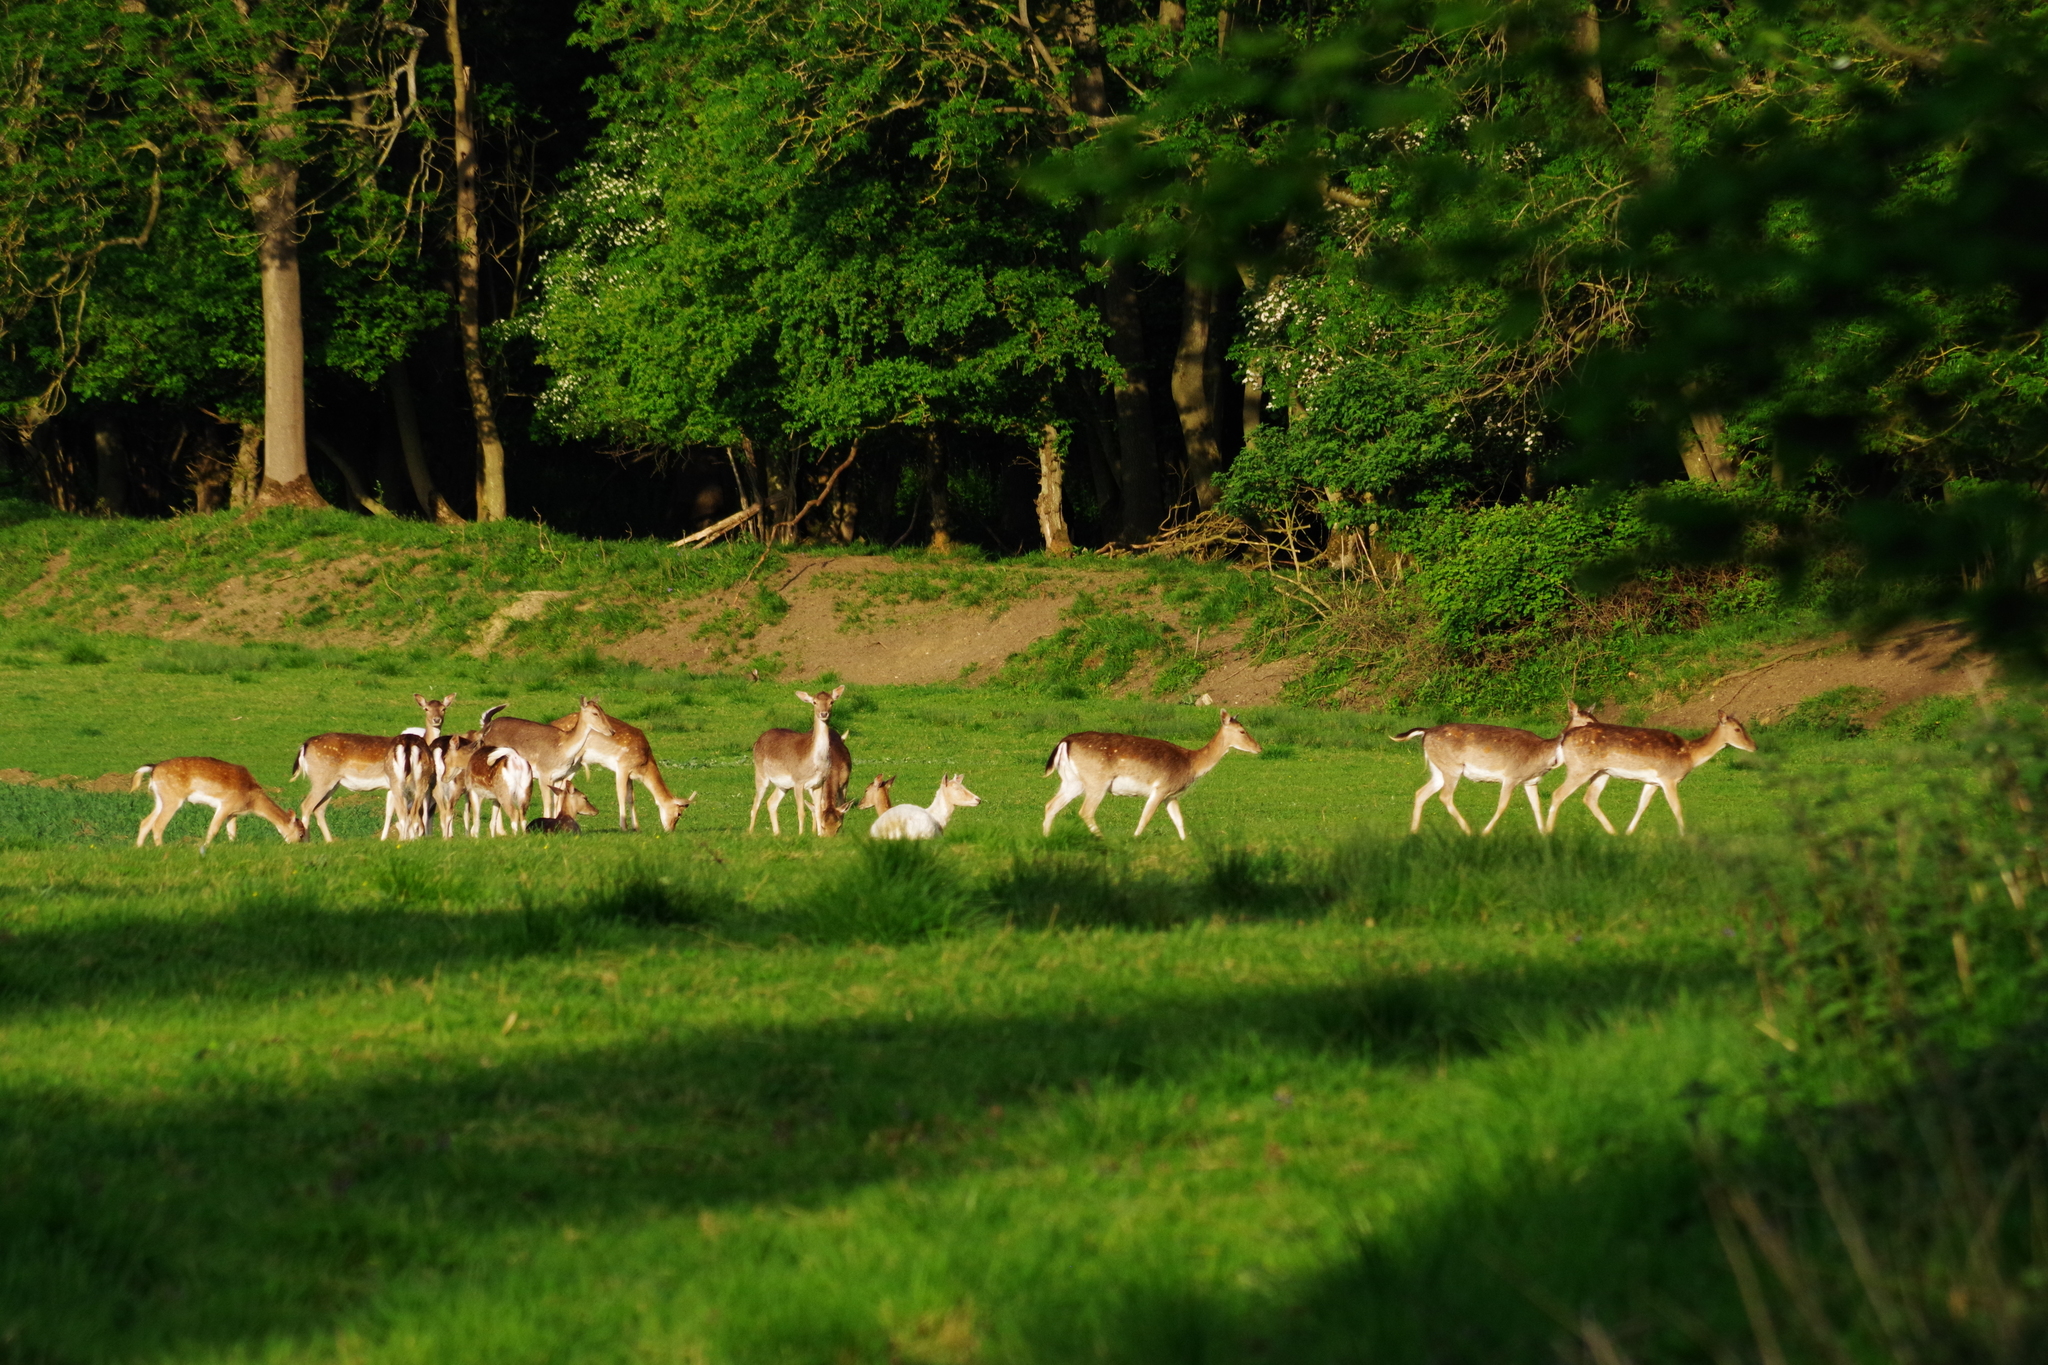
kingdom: Animalia
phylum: Chordata
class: Mammalia
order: Artiodactyla
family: Cervidae
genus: Dama
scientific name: Dama dama
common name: Fallow deer
